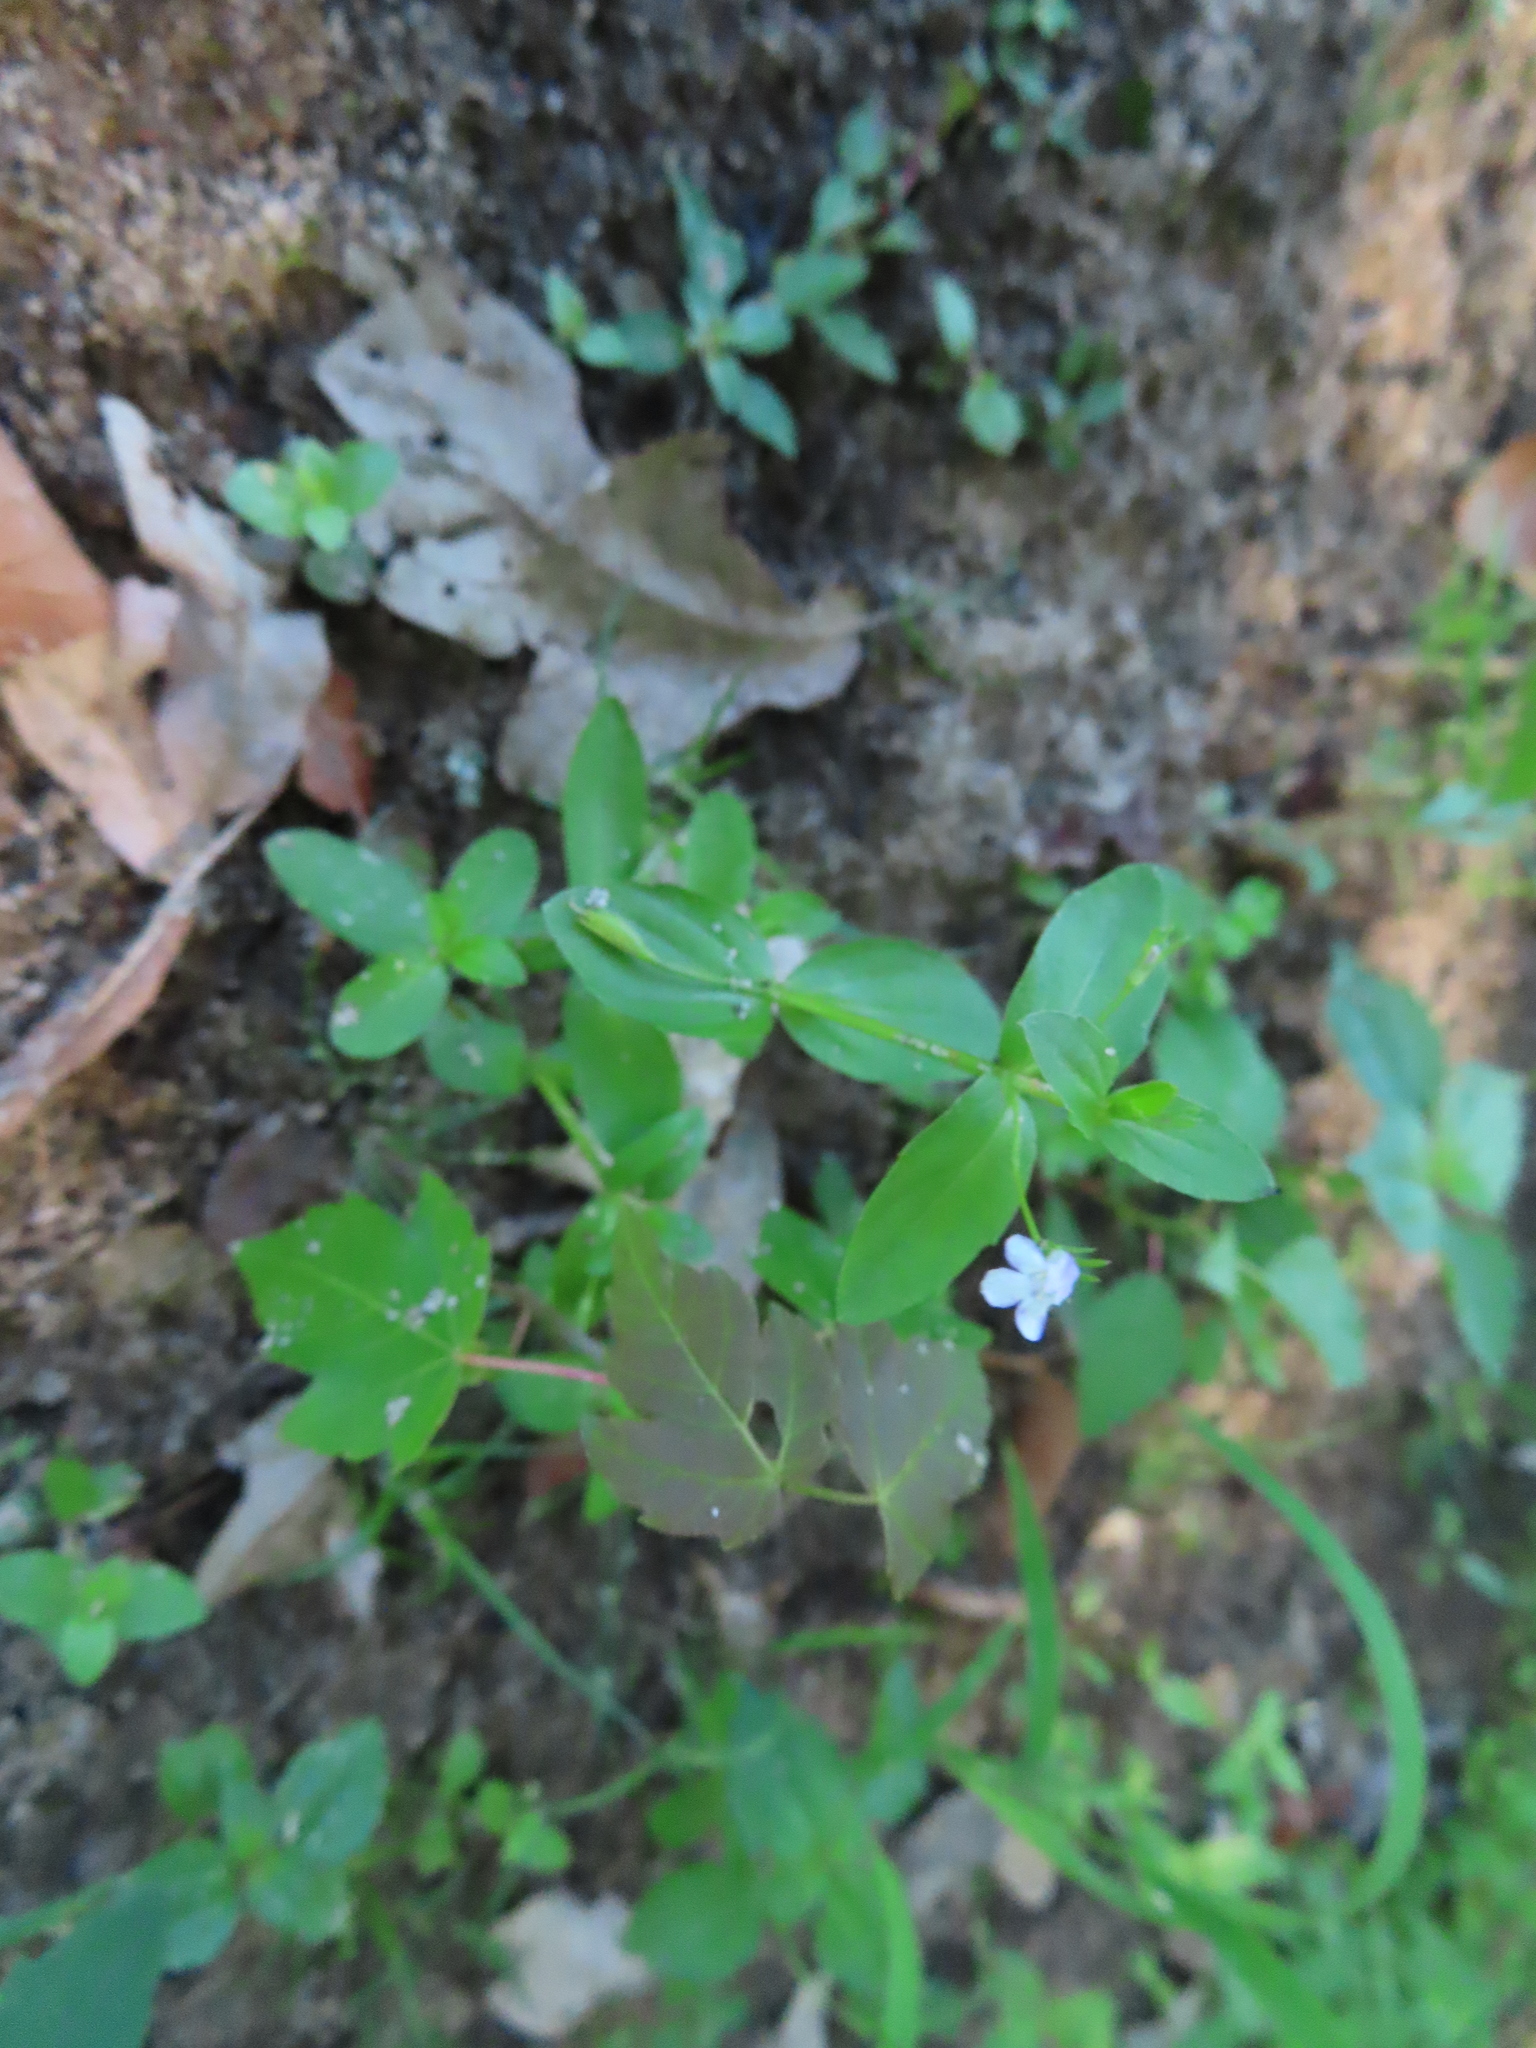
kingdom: Plantae
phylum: Tracheophyta
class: Magnoliopsida
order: Lamiales
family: Linderniaceae
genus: Lindernia
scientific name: Lindernia dubia
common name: Annual false pimpernel
